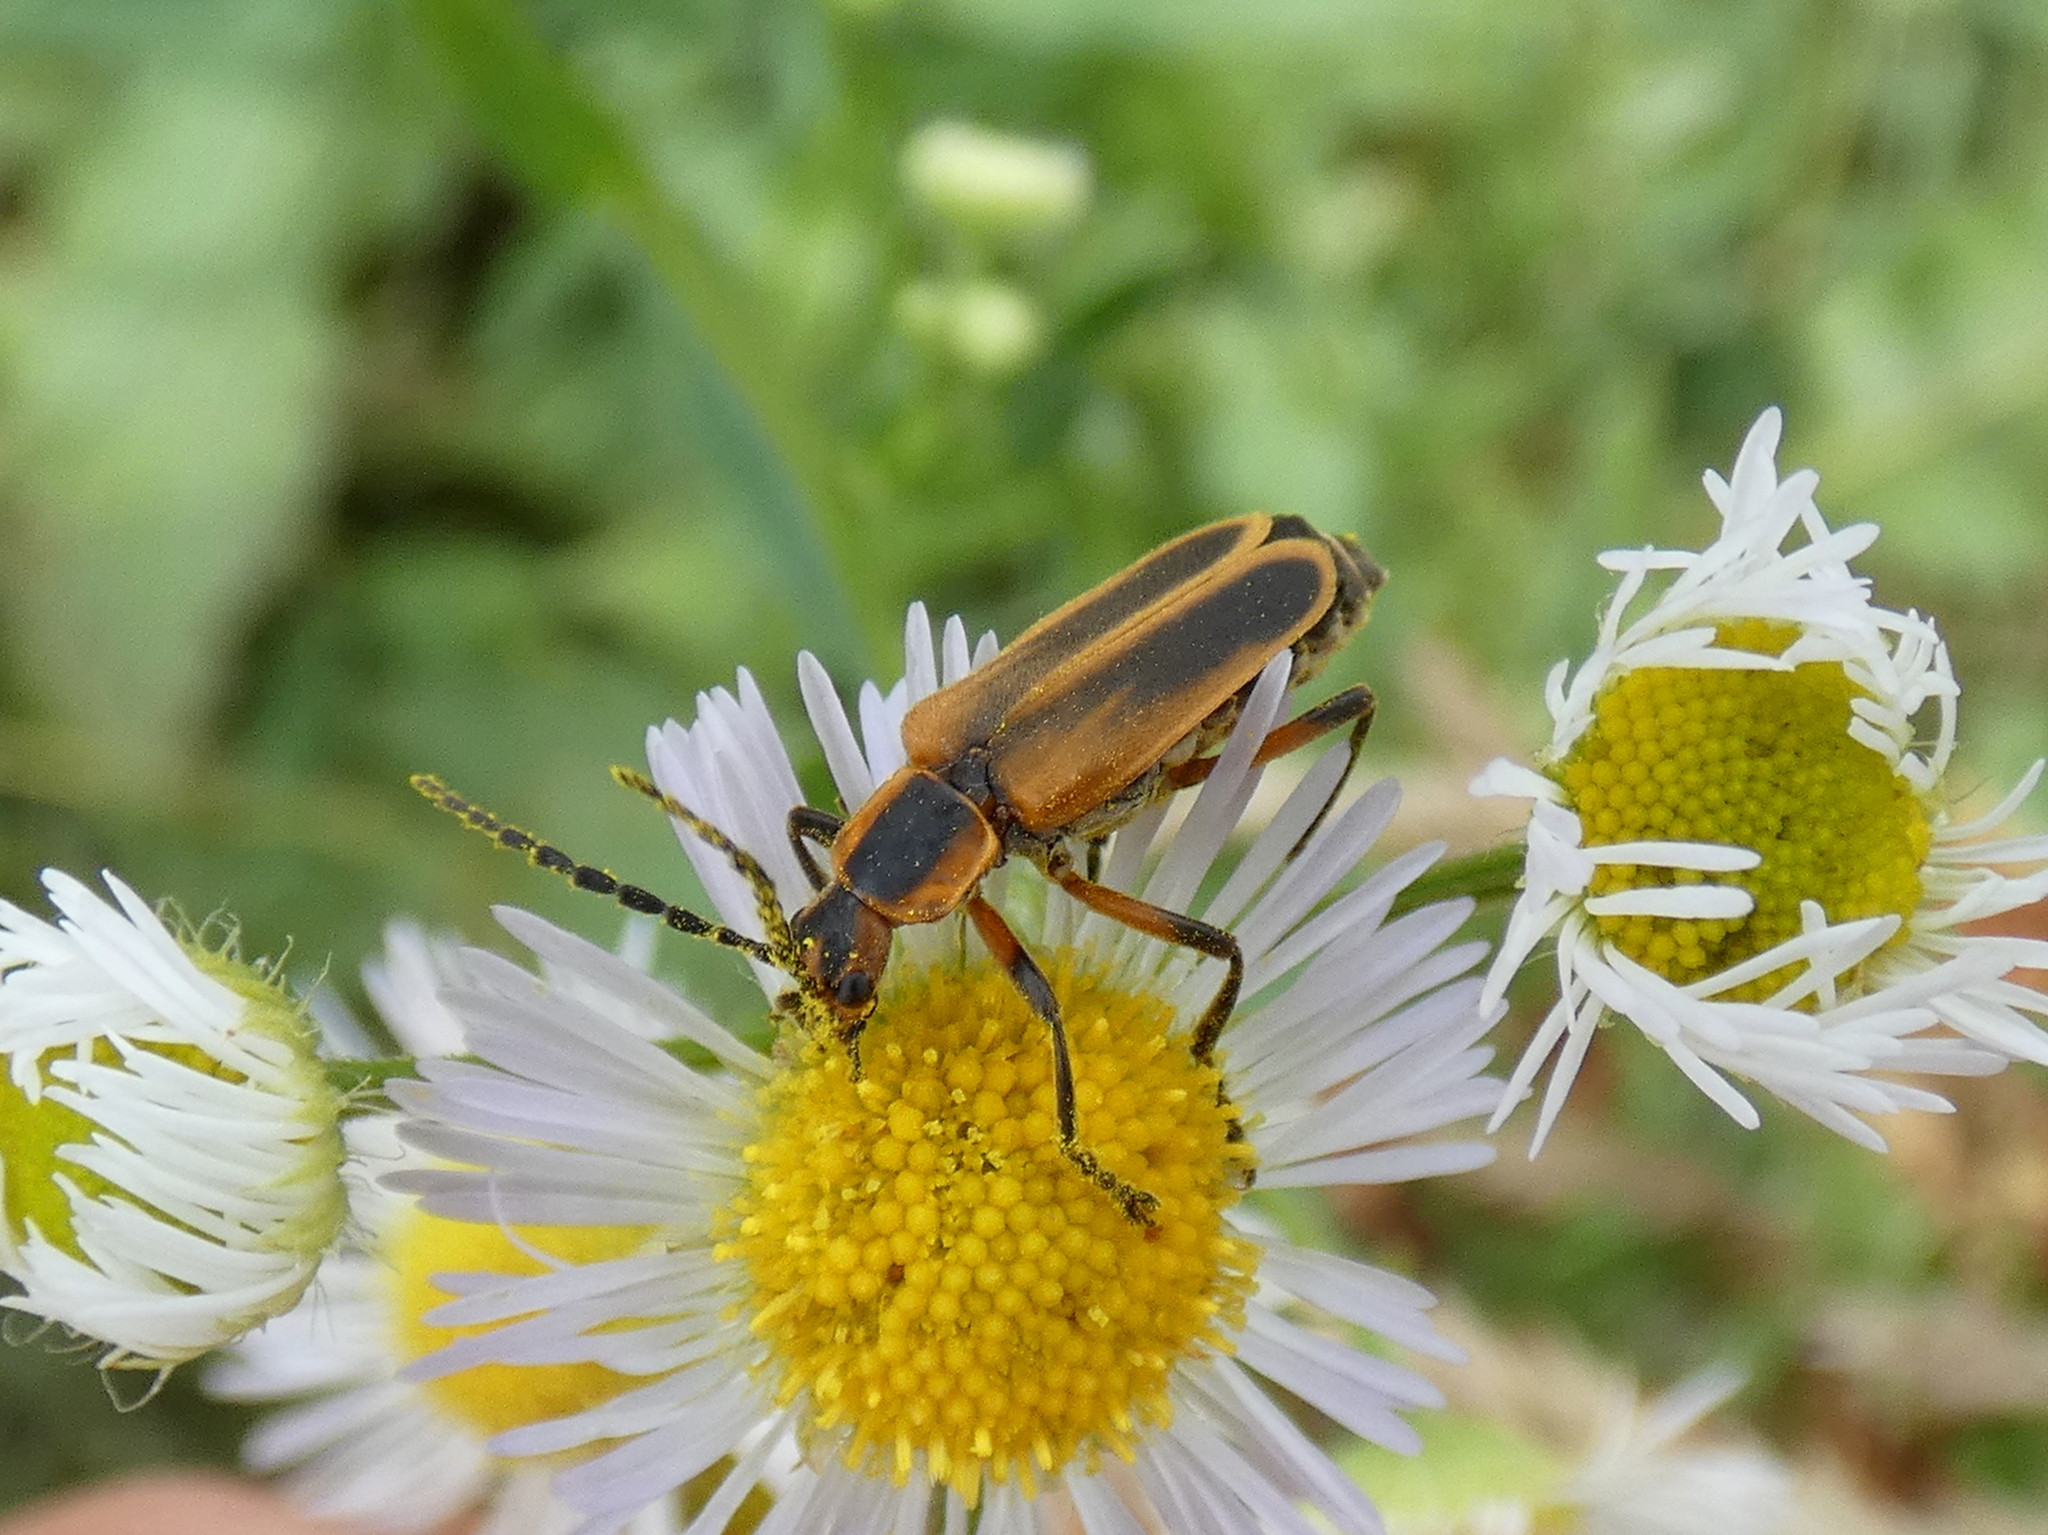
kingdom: Animalia
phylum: Arthropoda
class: Insecta
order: Coleoptera
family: Cantharidae
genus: Chauliognathus
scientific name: Chauliognathus marginatus
